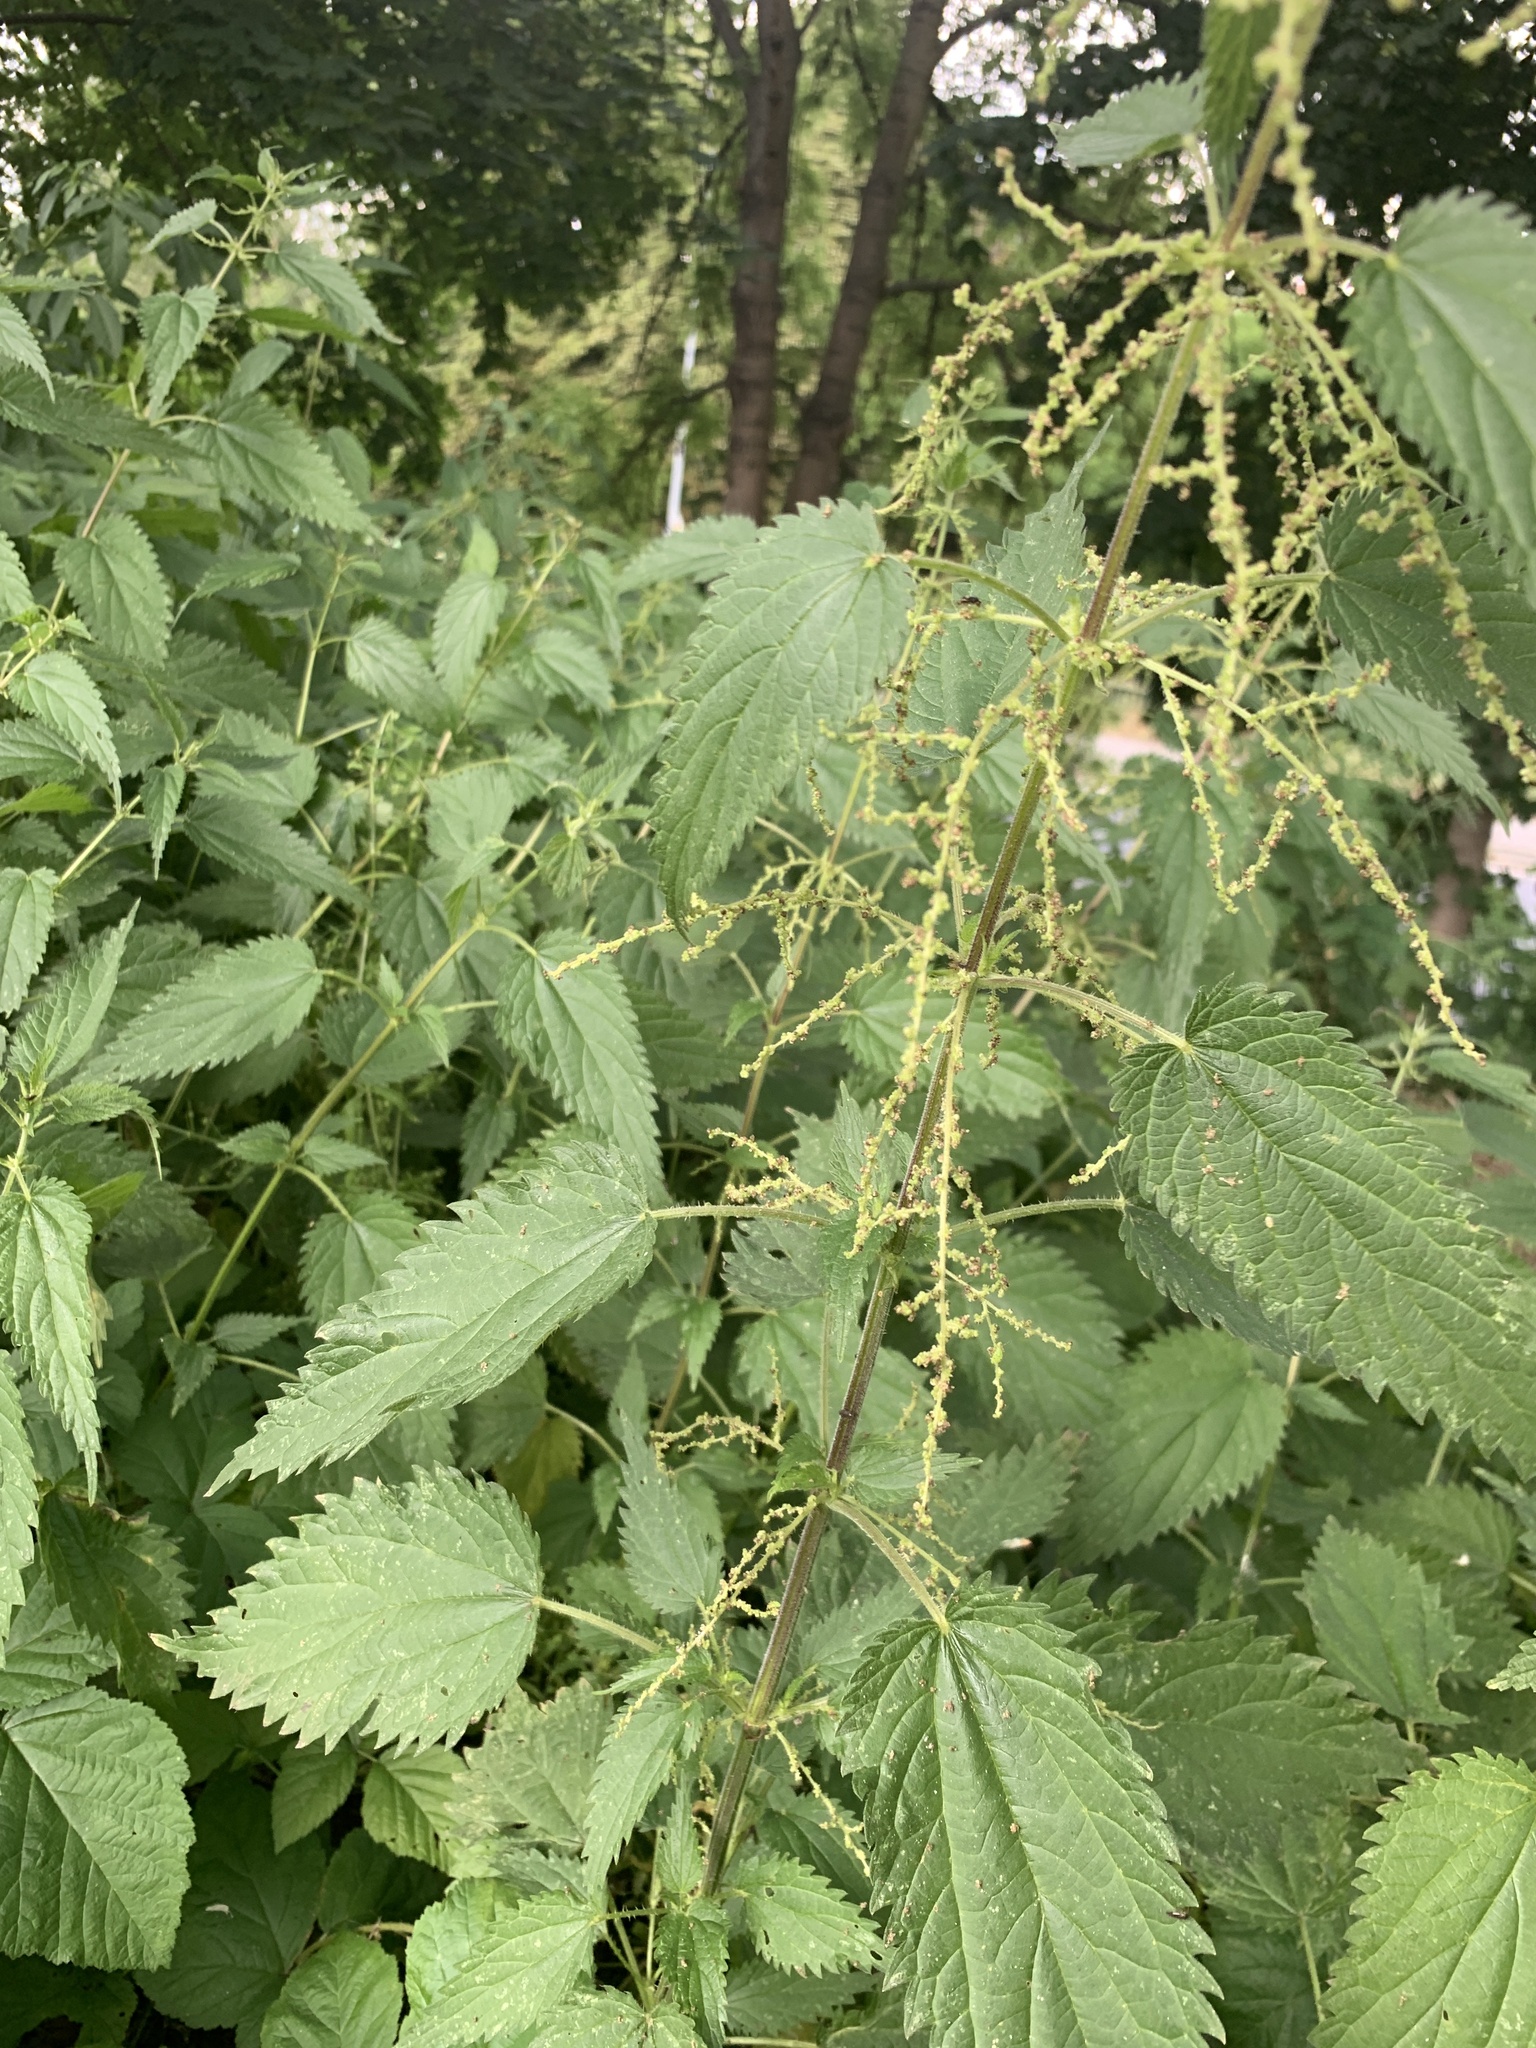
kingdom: Plantae
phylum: Tracheophyta
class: Magnoliopsida
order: Rosales
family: Urticaceae
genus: Urtica
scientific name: Urtica dioica
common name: Common nettle
